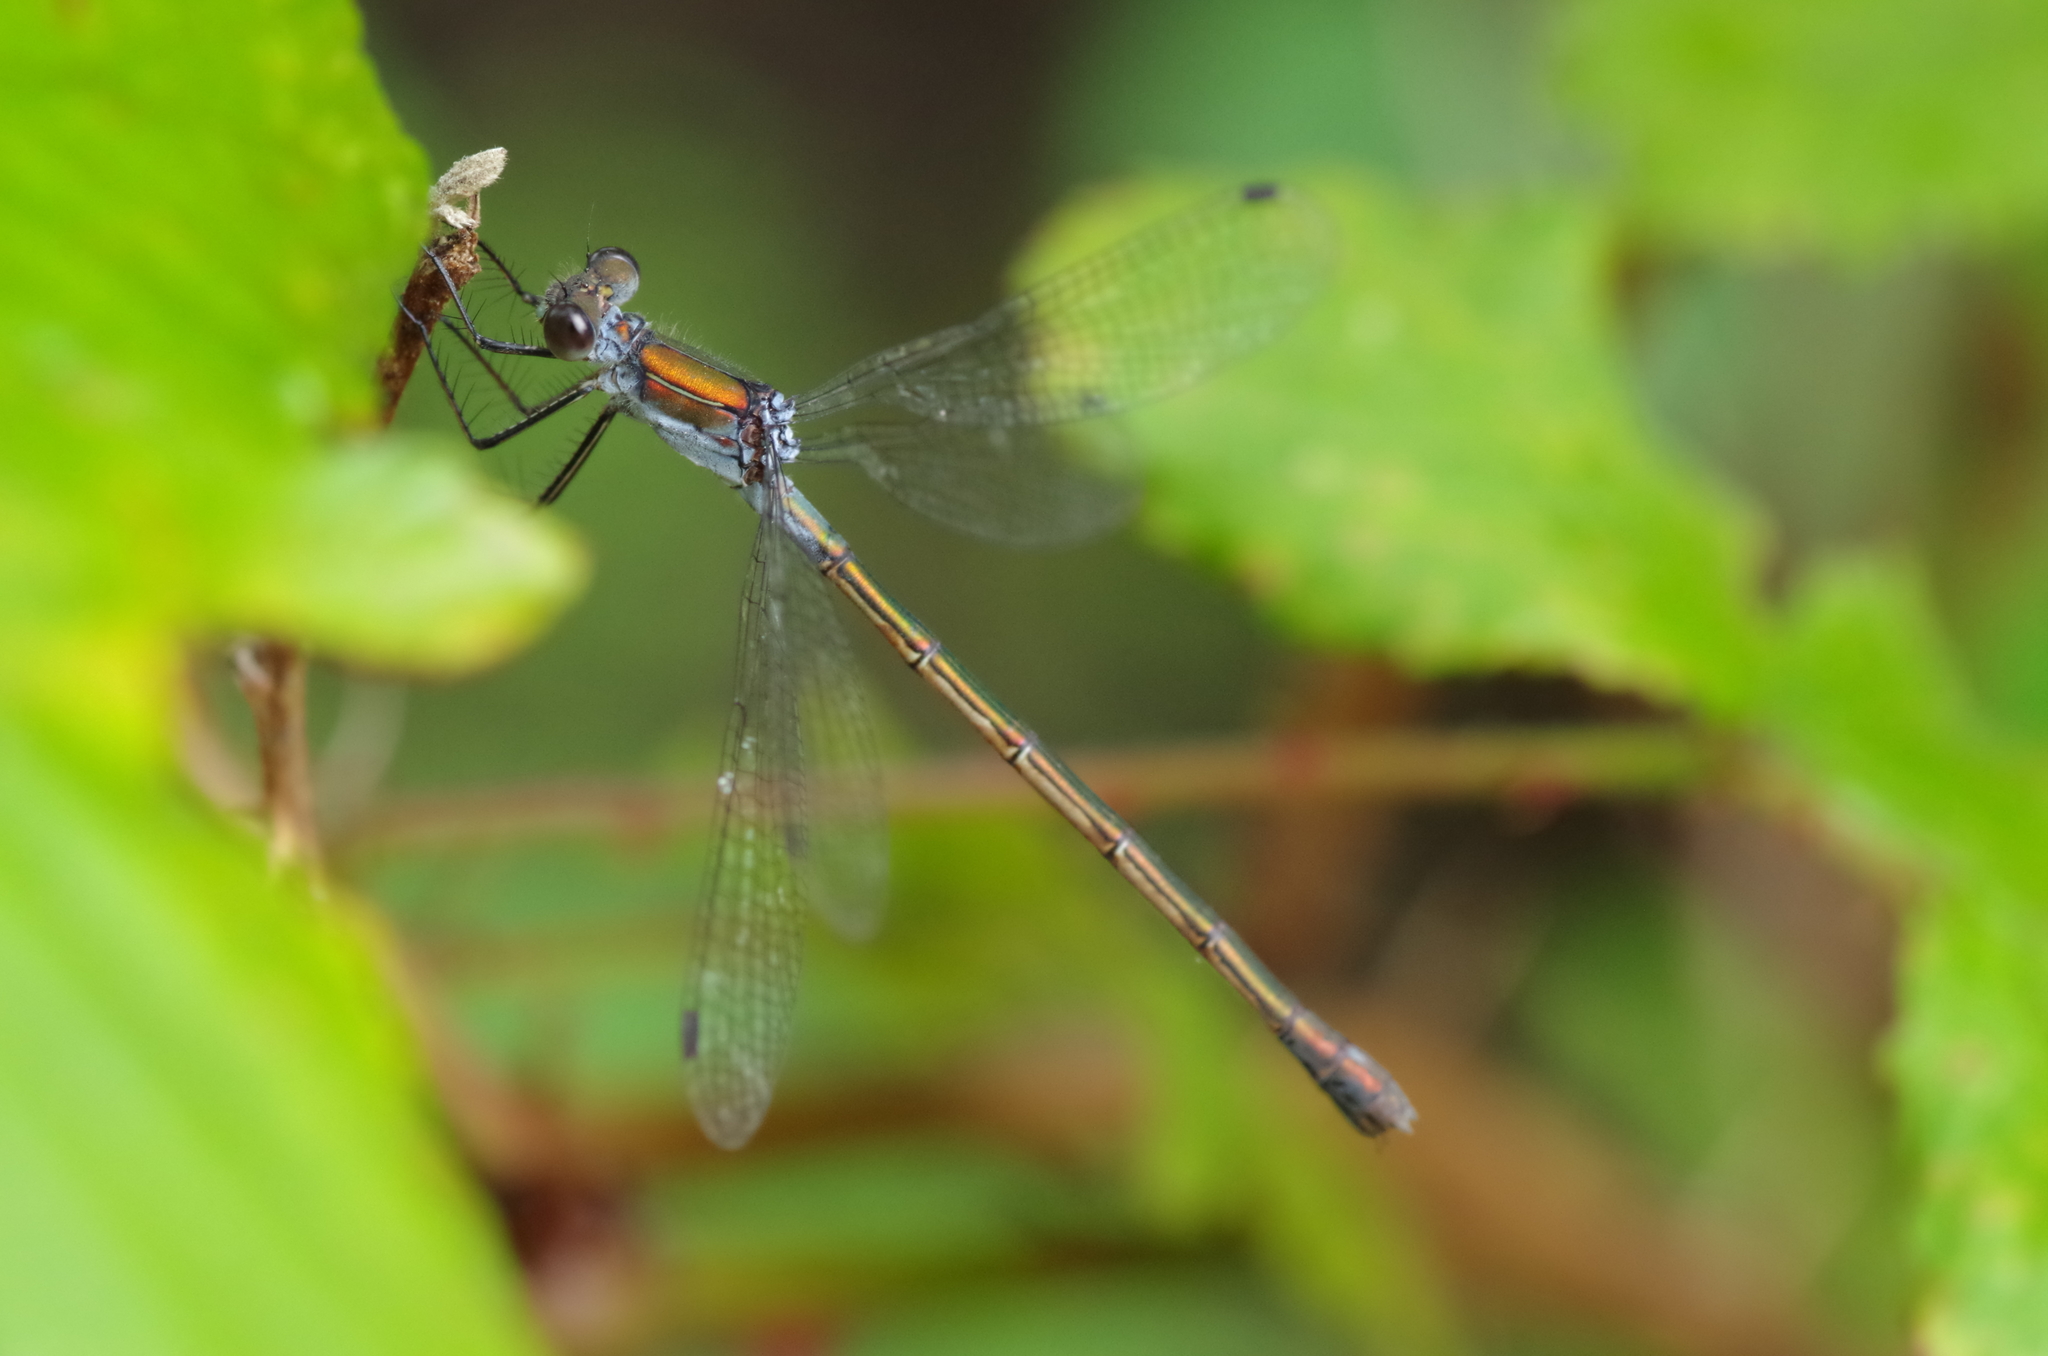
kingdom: Animalia
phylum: Arthropoda
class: Insecta
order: Odonata
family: Lestidae
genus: Lestes
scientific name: Lestes sponsa
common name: Common spreadwing
